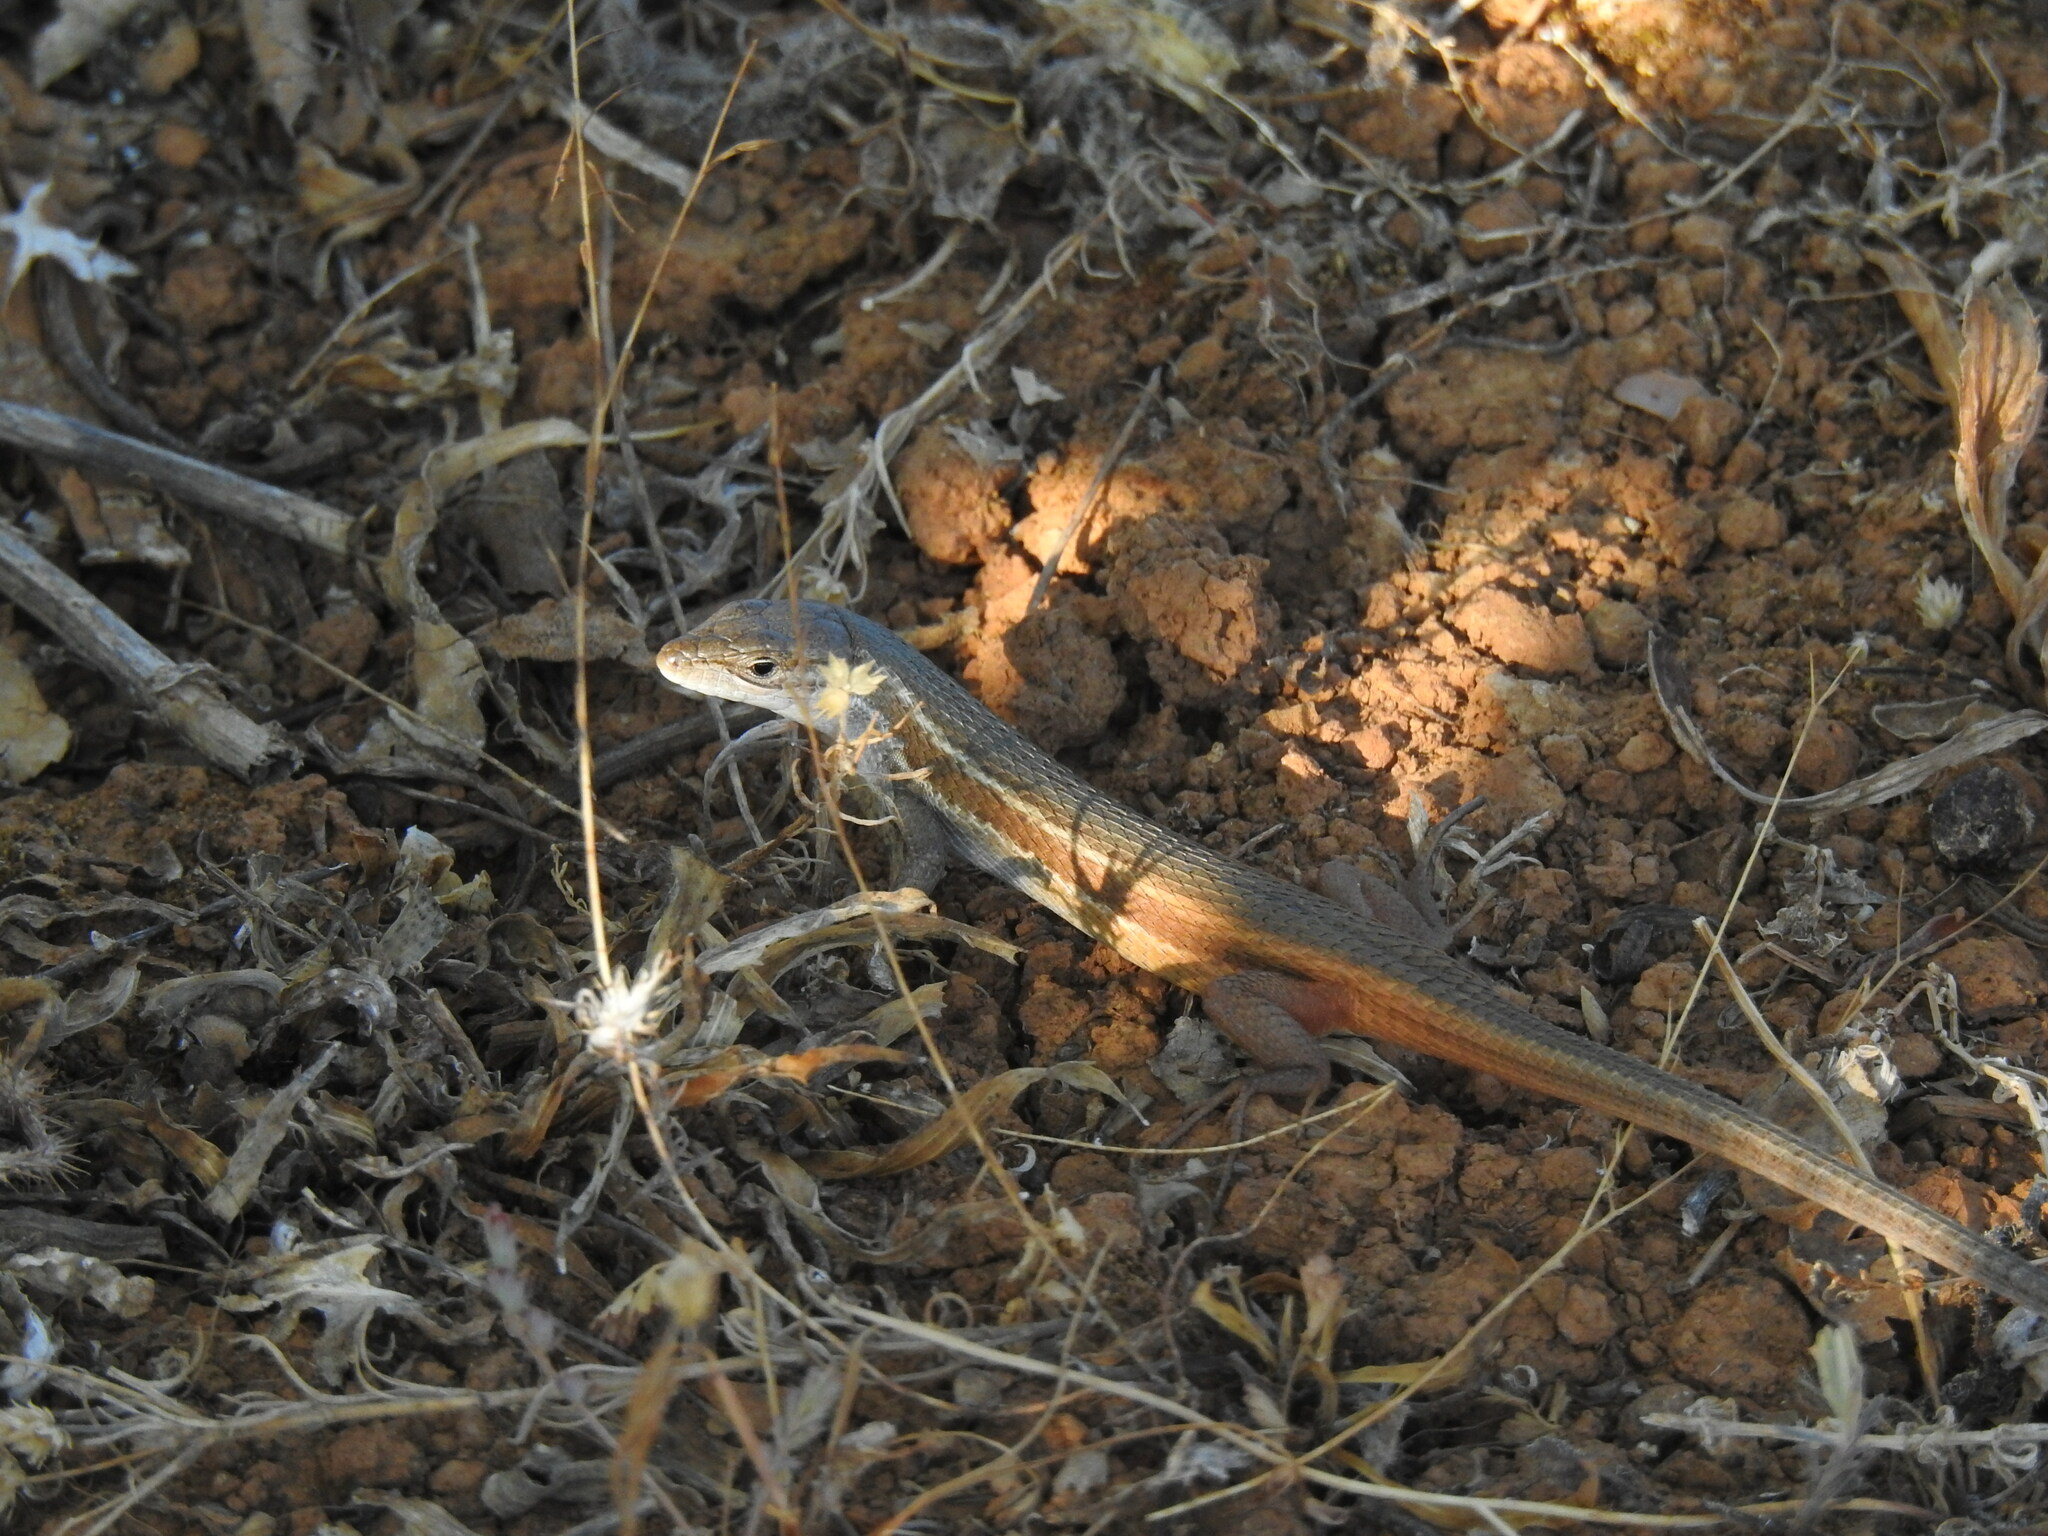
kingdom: Animalia
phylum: Chordata
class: Squamata
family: Lacertidae
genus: Psammodromus
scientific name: Psammodromus algirus
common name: Algerian psammodromus
